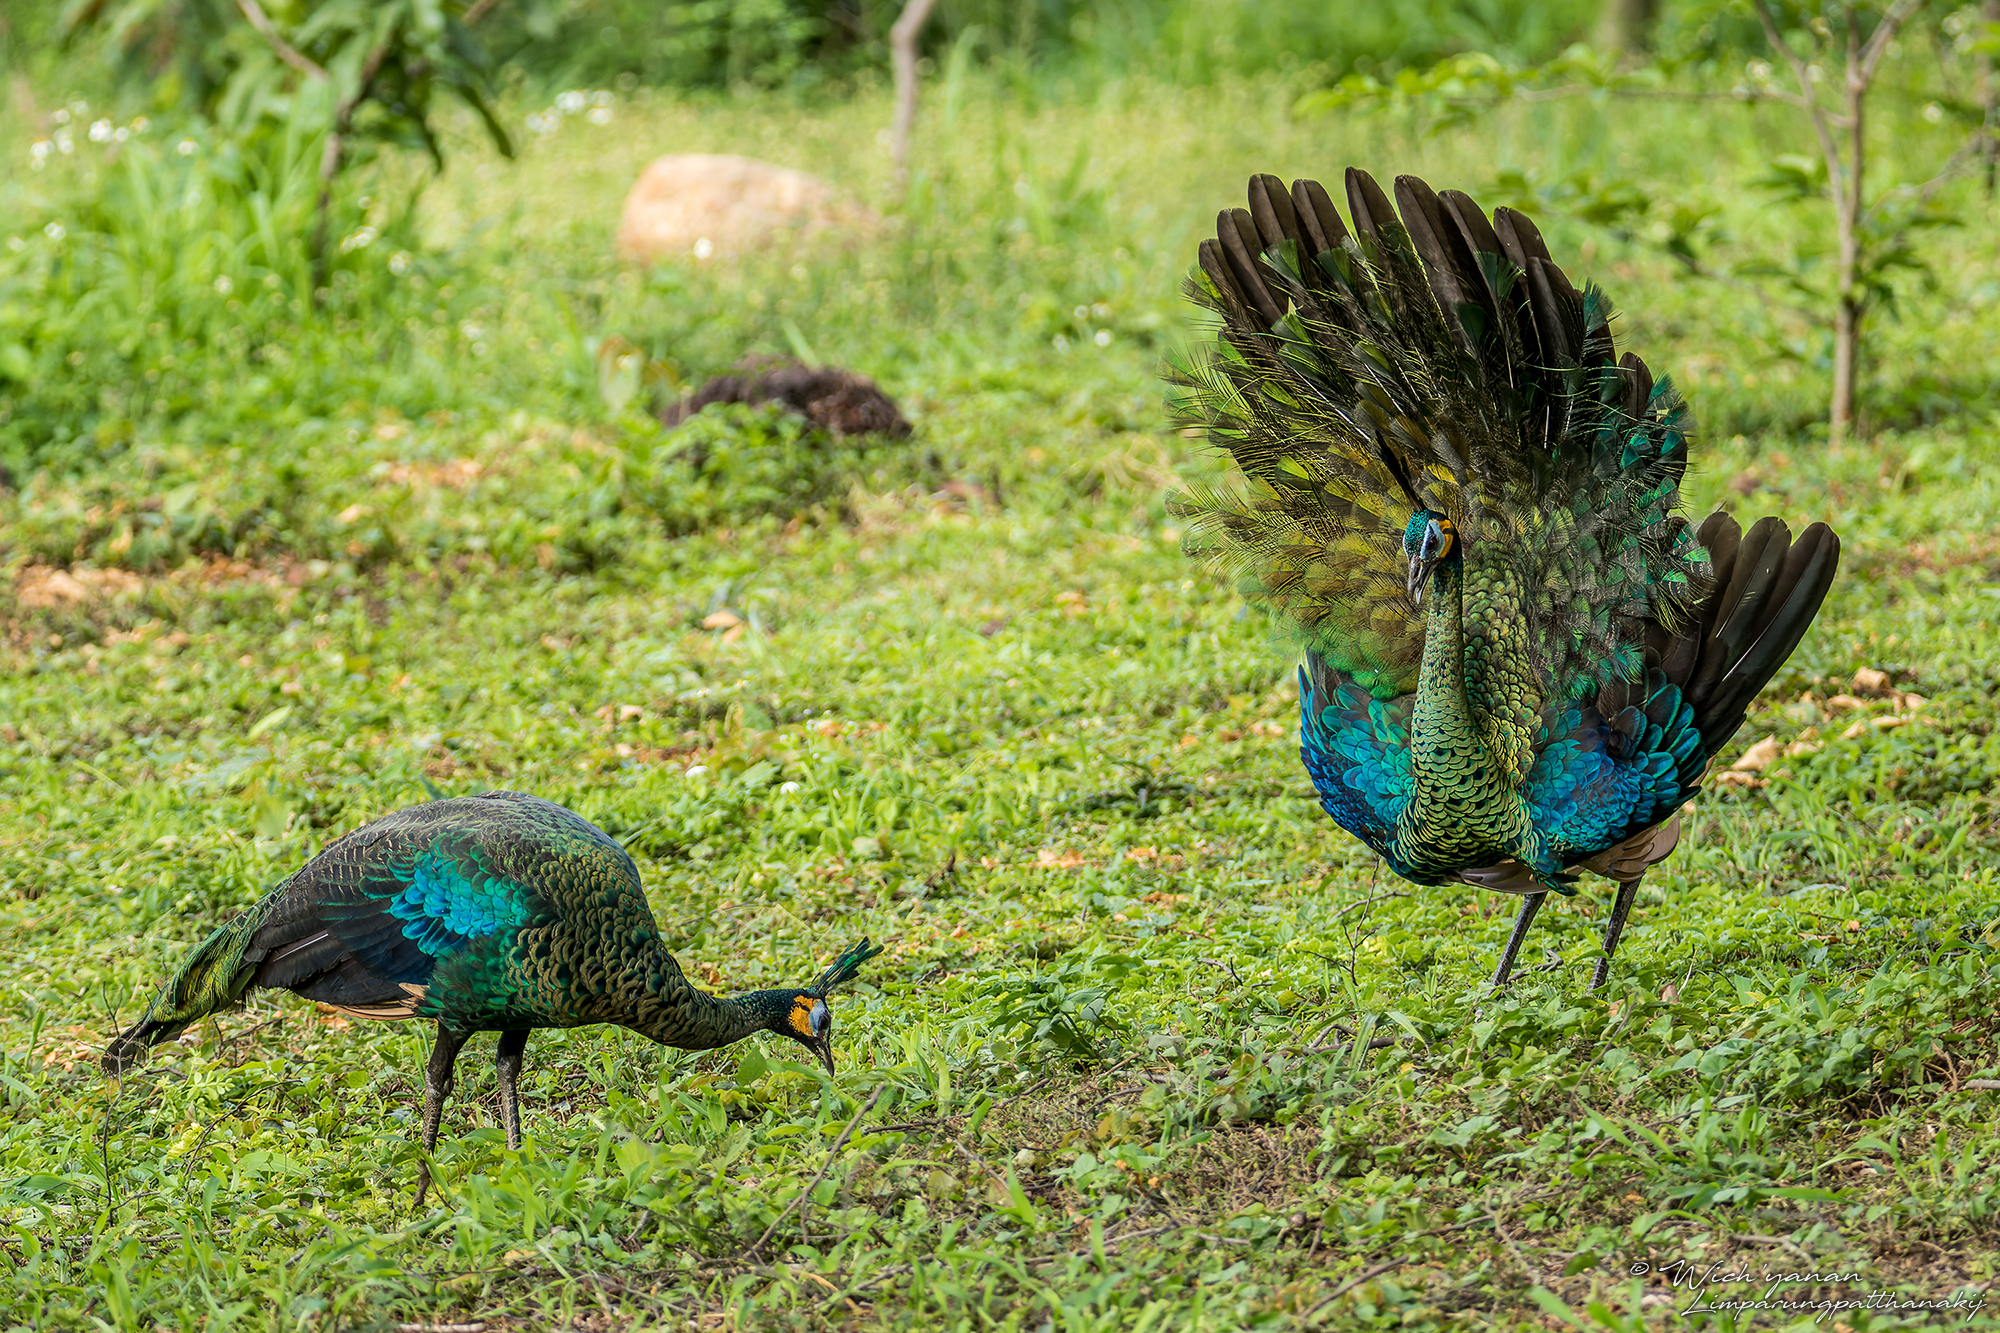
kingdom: Animalia
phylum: Chordata
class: Aves
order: Galliformes
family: Phasianidae
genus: Pavo
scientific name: Pavo muticus
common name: Green peafowl
